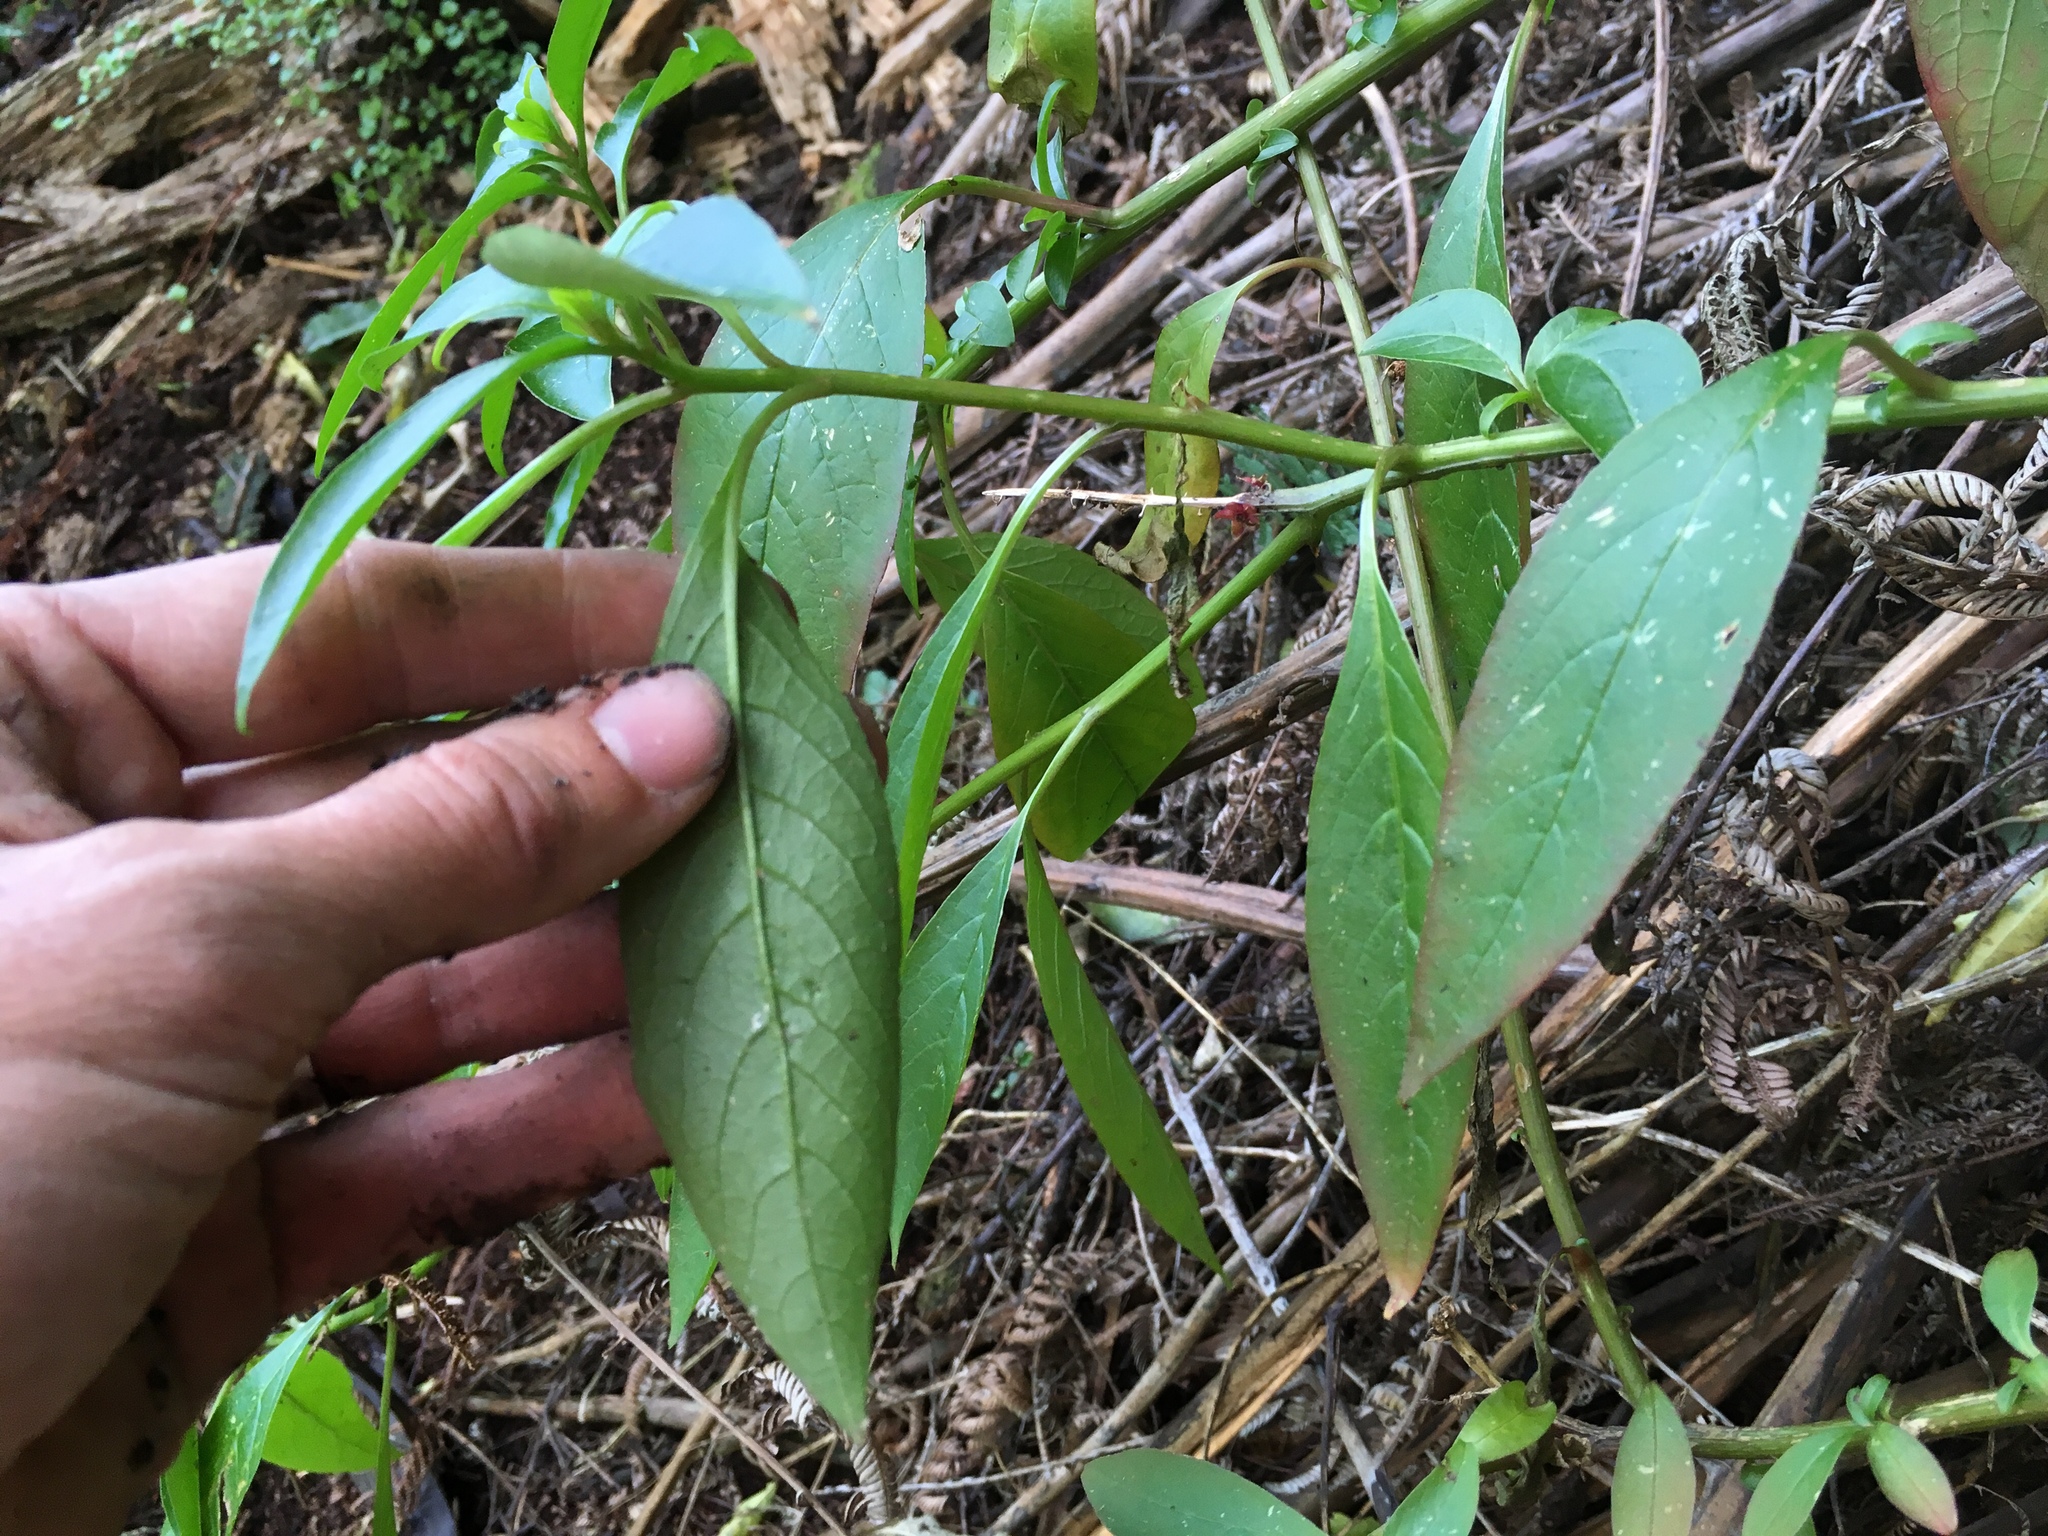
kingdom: Plantae
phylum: Tracheophyta
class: Magnoliopsida
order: Caryophyllales
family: Phytolaccaceae
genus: Phytolacca
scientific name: Phytolacca icosandra
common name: Button pokeweed
